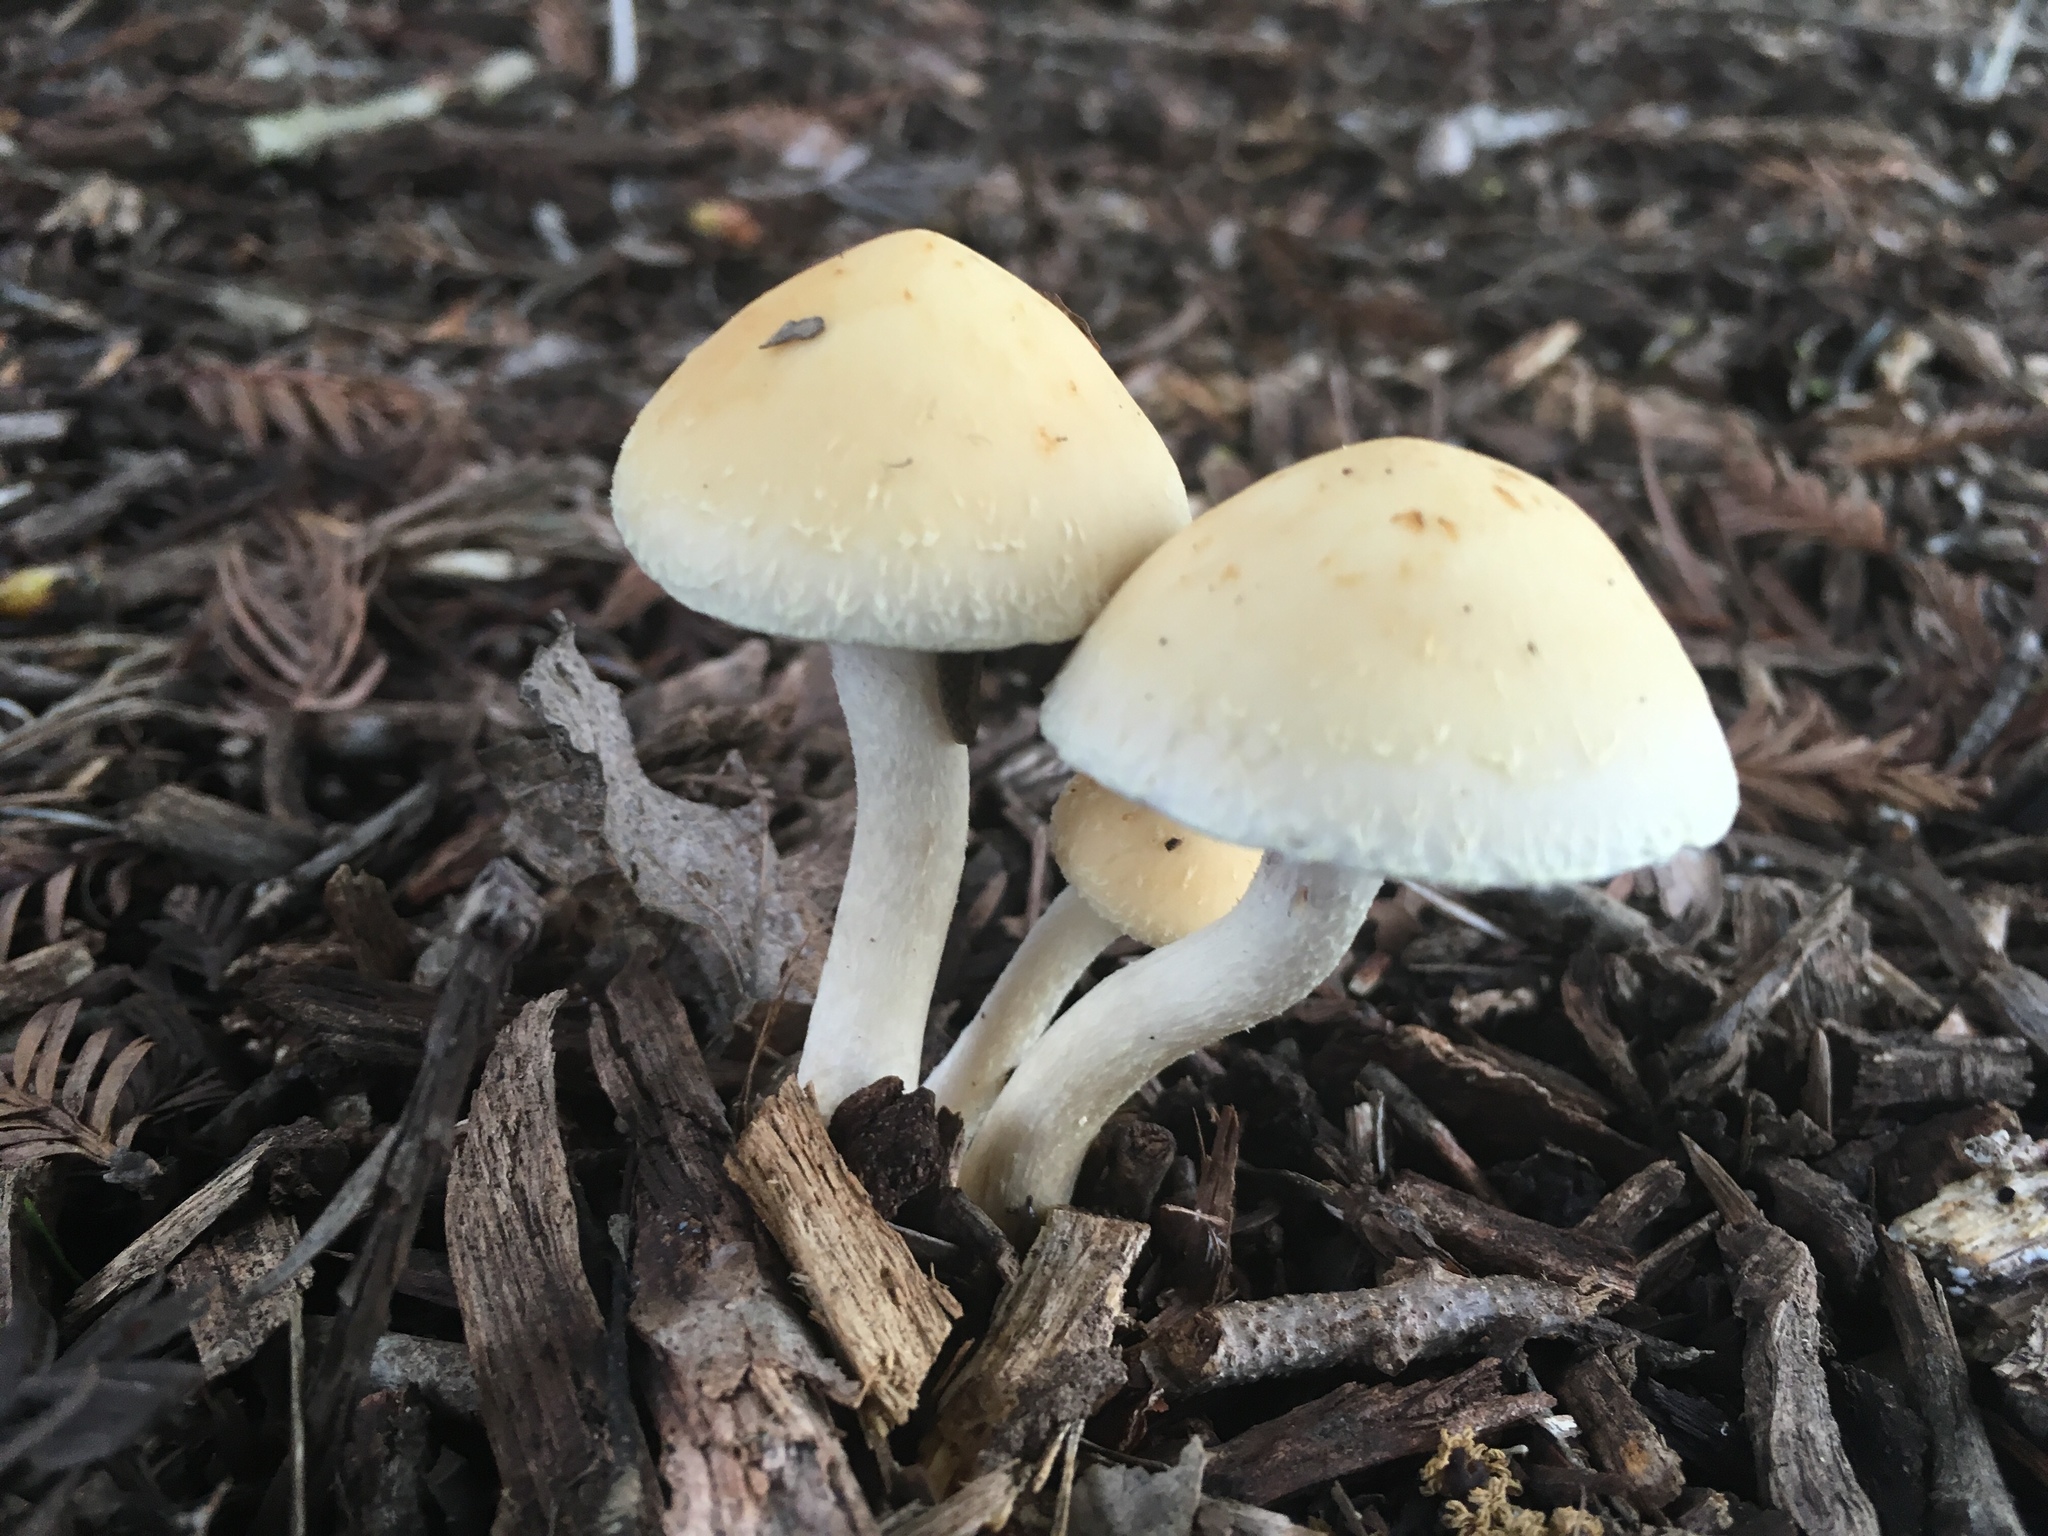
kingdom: Fungi
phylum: Basidiomycota
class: Agaricomycetes
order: Agaricales
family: Strophariaceae
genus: Leratiomyces
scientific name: Leratiomyces percevalii
